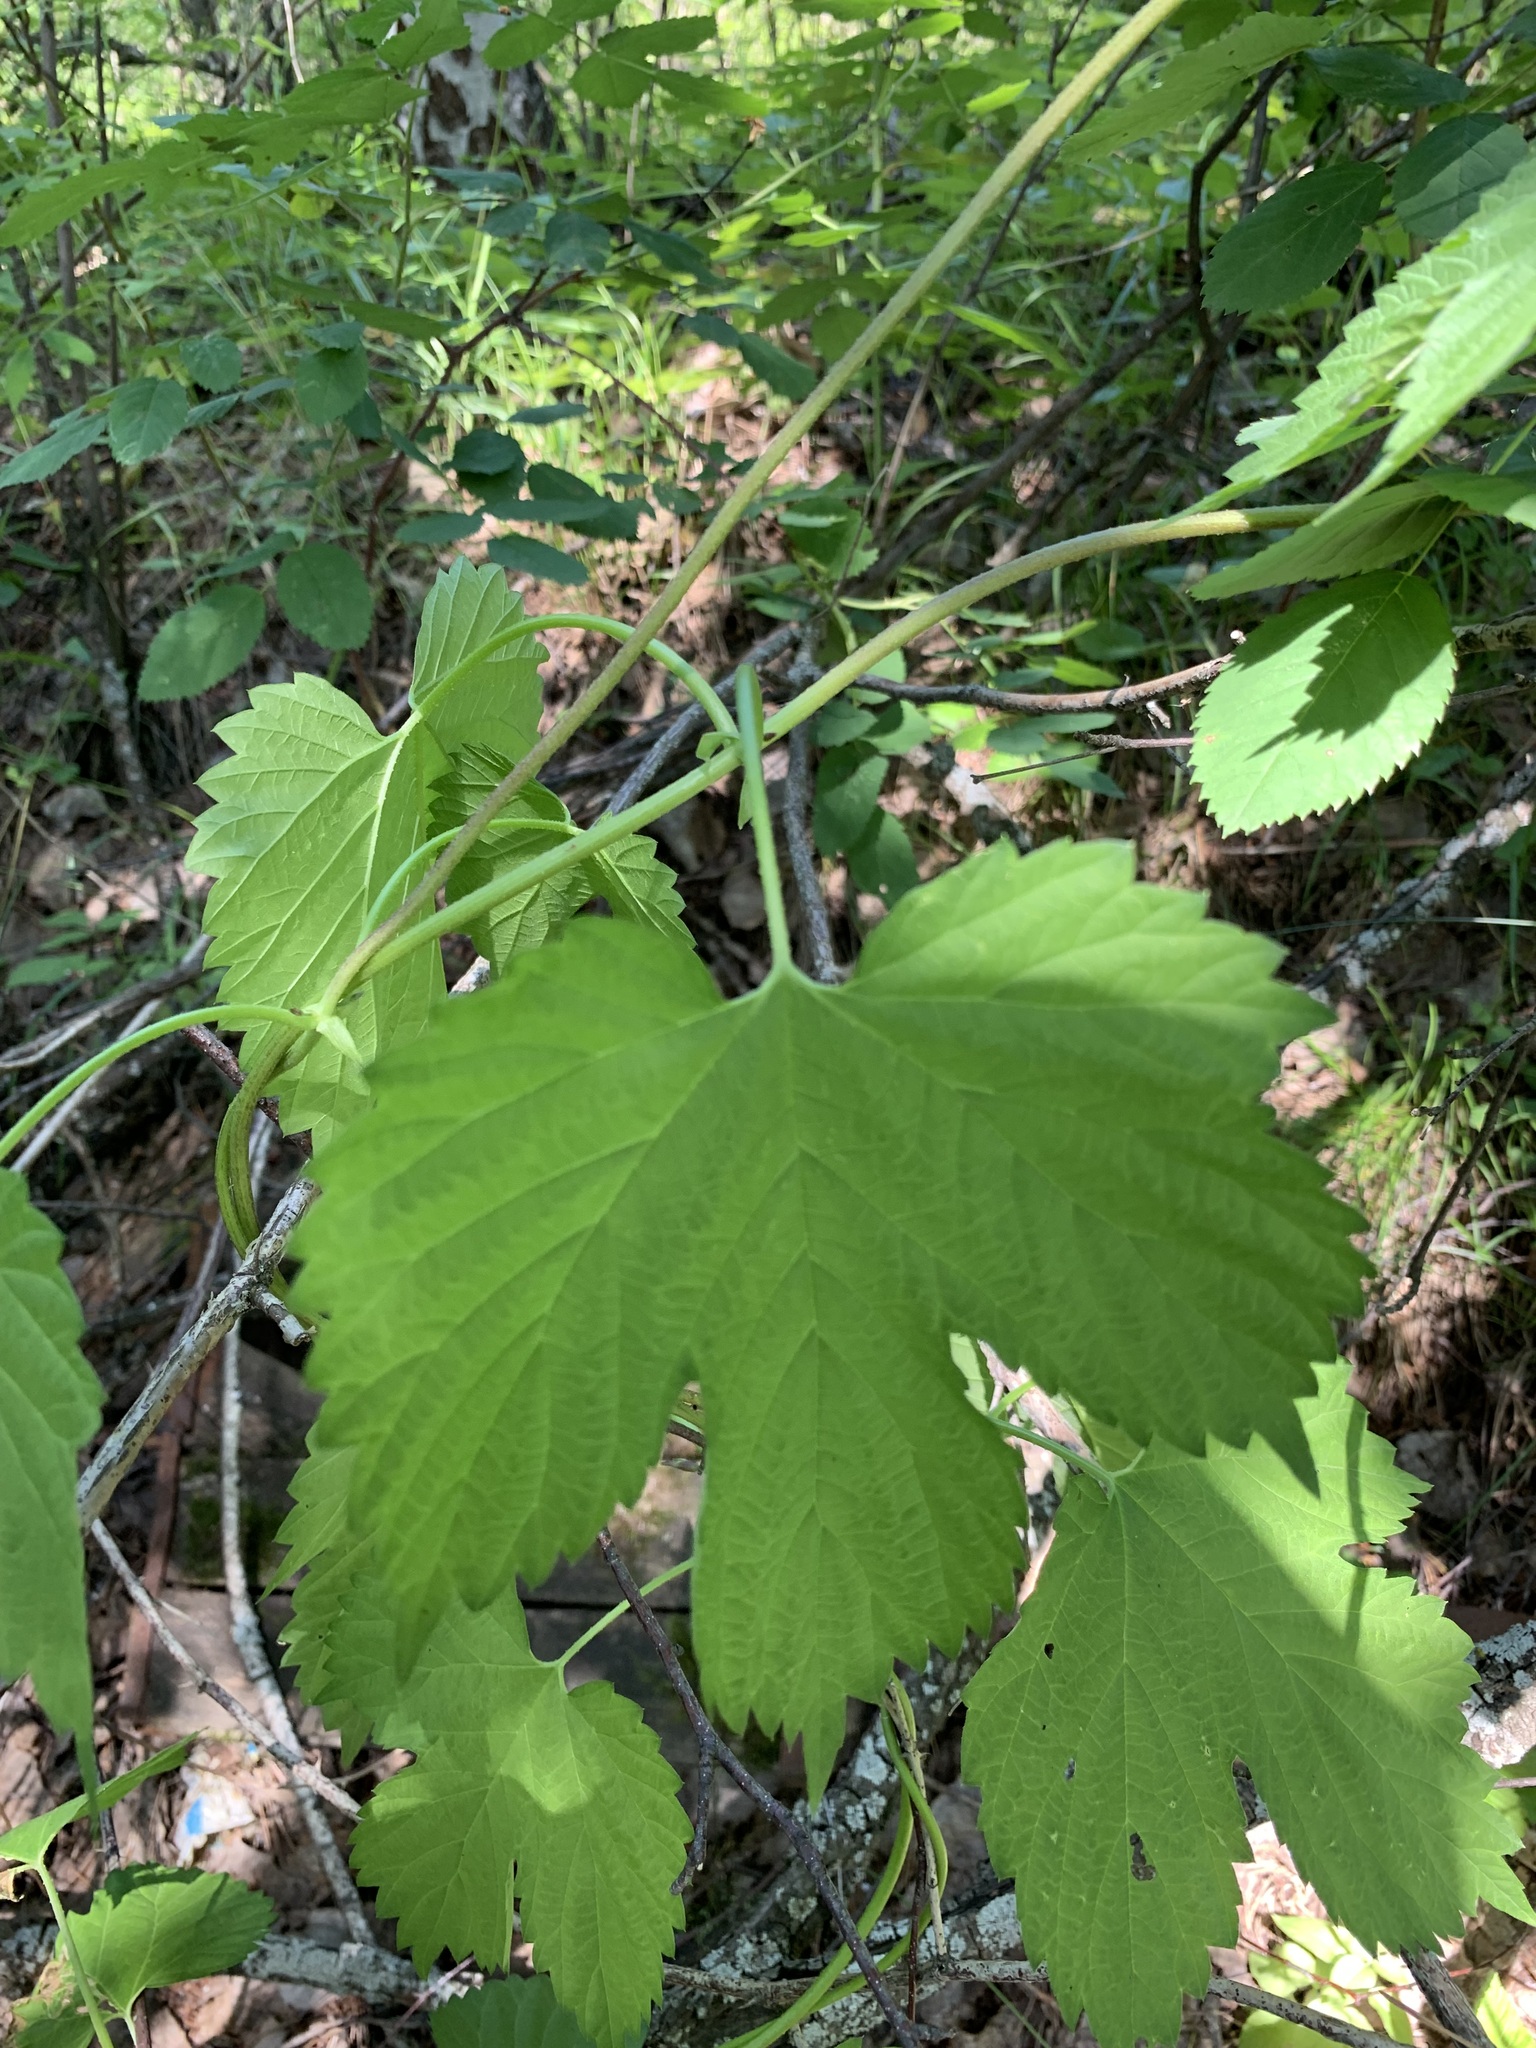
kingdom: Plantae
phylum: Tracheophyta
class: Magnoliopsida
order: Rosales
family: Cannabaceae
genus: Humulus
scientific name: Humulus lupulus
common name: Hop
